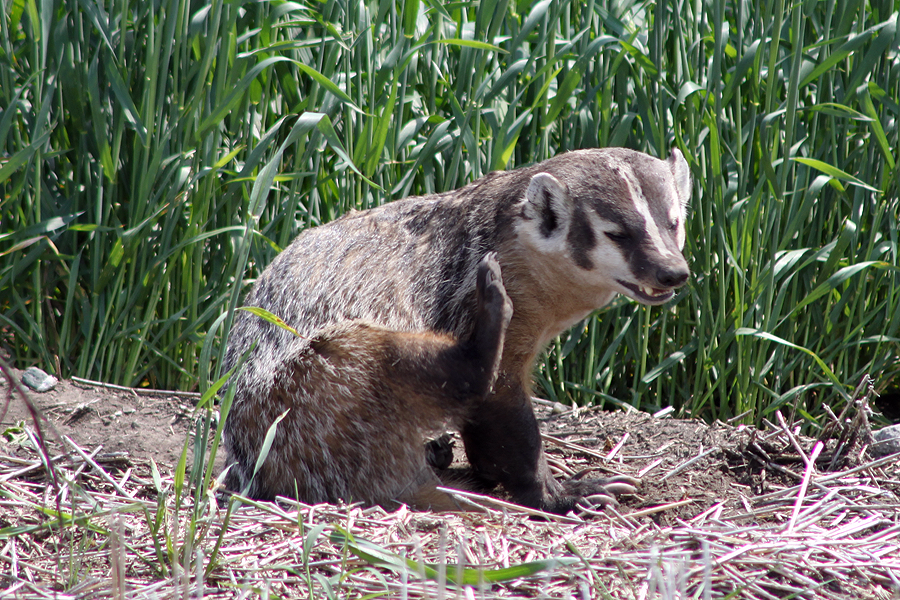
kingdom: Animalia
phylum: Chordata
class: Mammalia
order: Carnivora
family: Mustelidae
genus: Taxidea
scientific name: Taxidea taxus
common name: American badger
